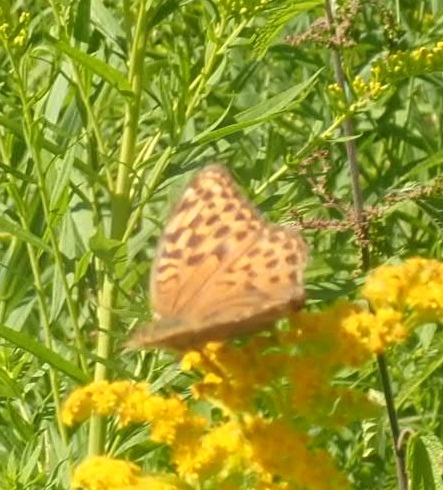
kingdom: Animalia
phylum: Arthropoda
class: Insecta
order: Lepidoptera
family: Nymphalidae
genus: Argynnis
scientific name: Argynnis paphia
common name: Silver-washed fritillary
